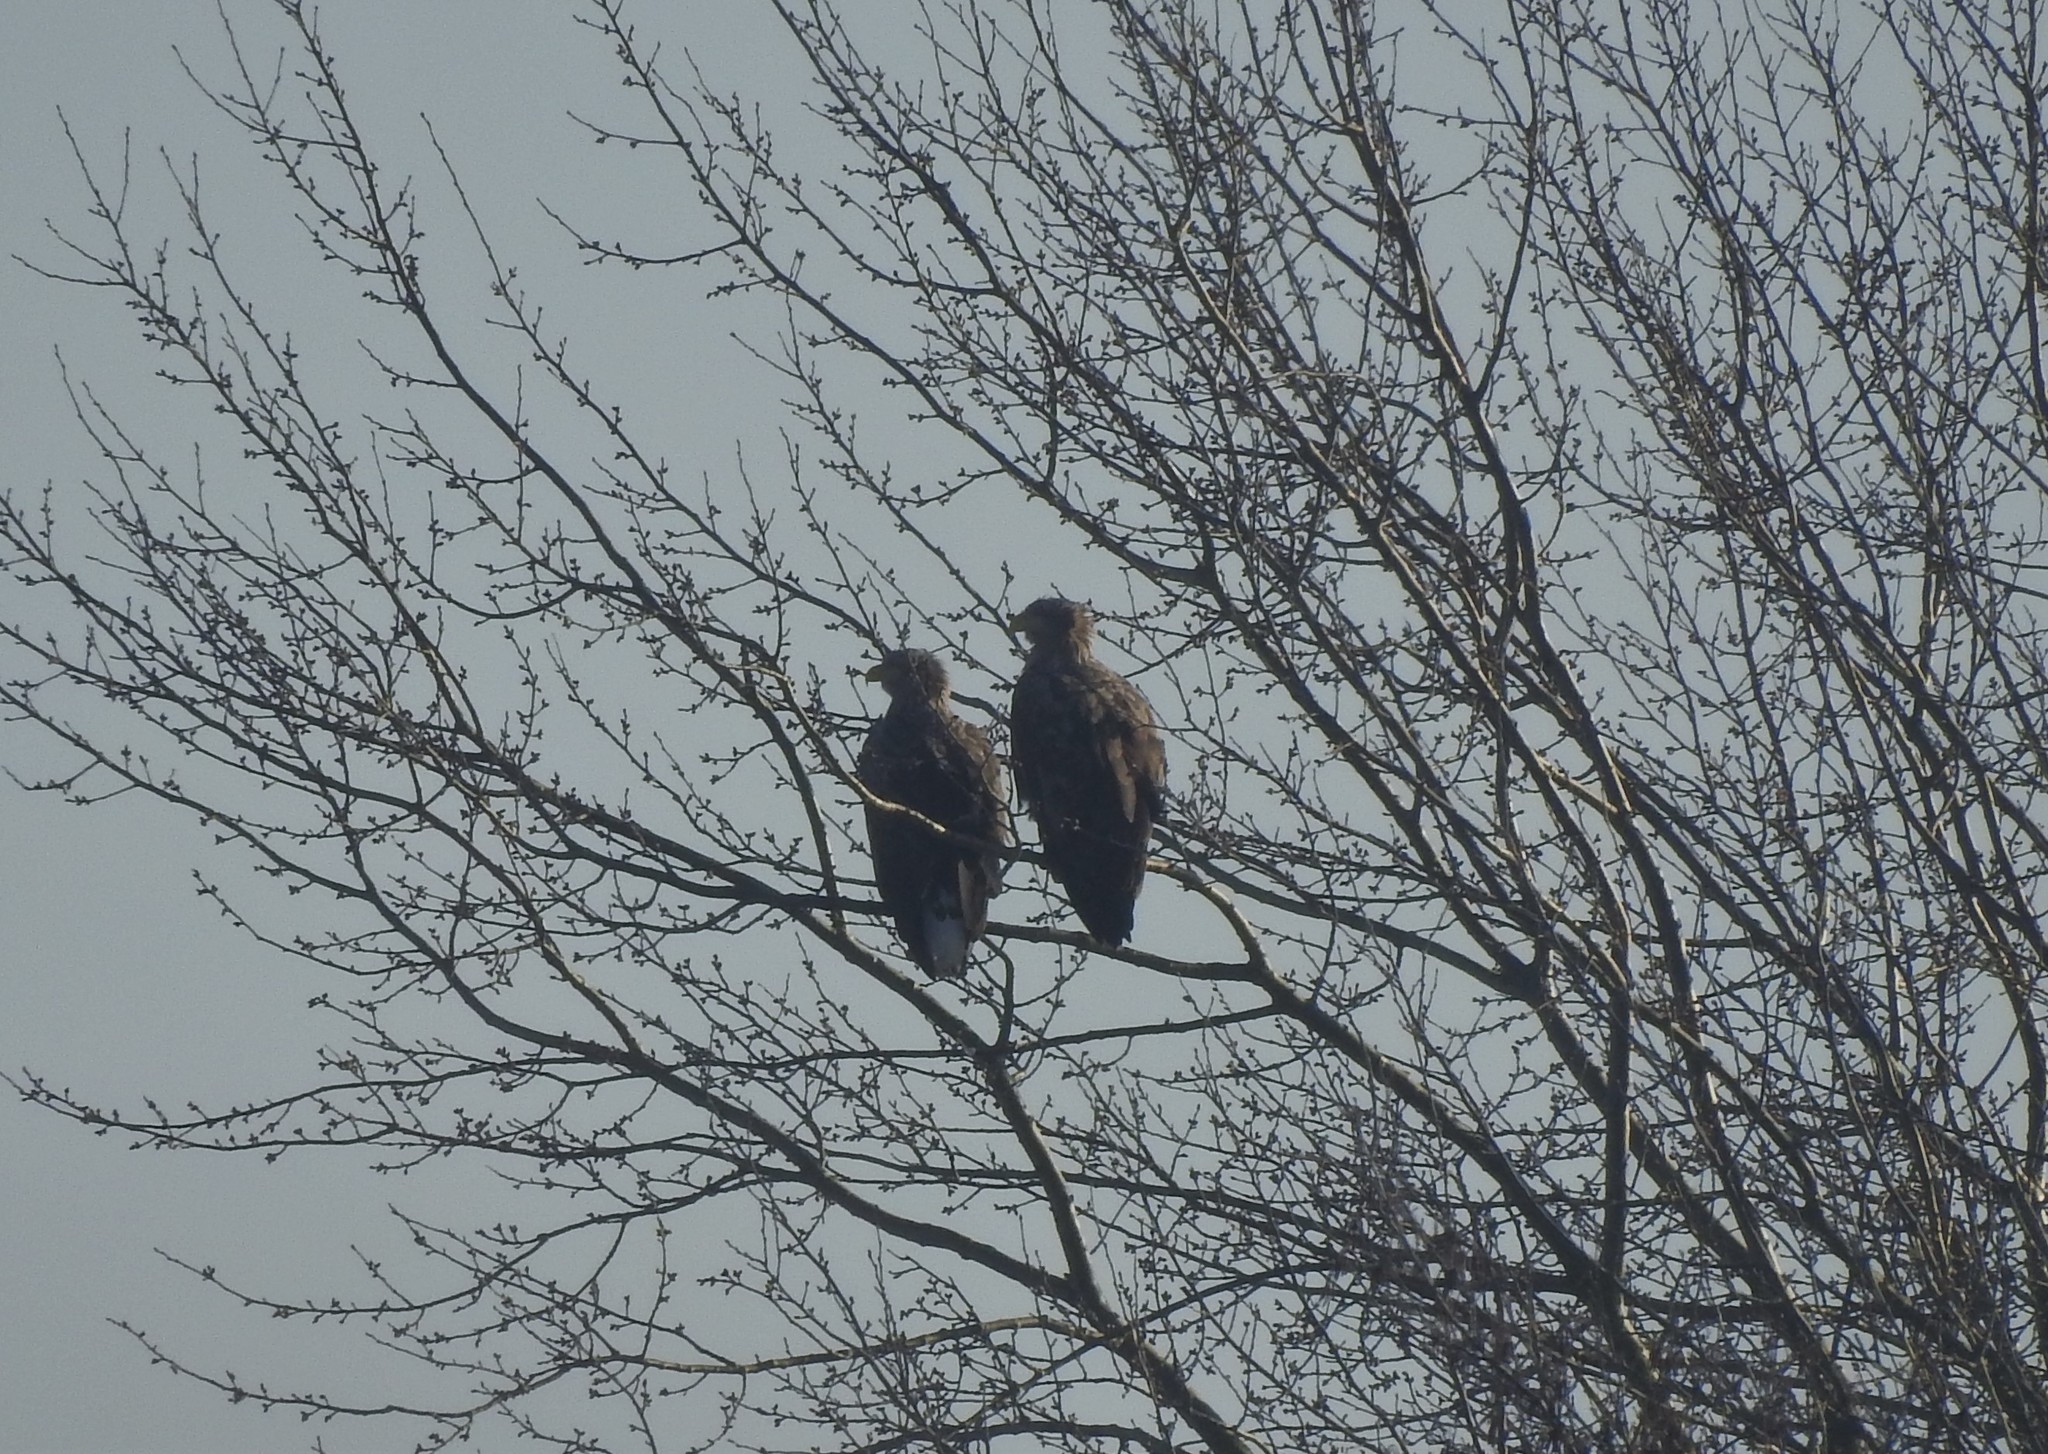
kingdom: Animalia
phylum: Chordata
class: Aves
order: Accipitriformes
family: Accipitridae
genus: Haliaeetus
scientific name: Haliaeetus albicilla
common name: White-tailed eagle
